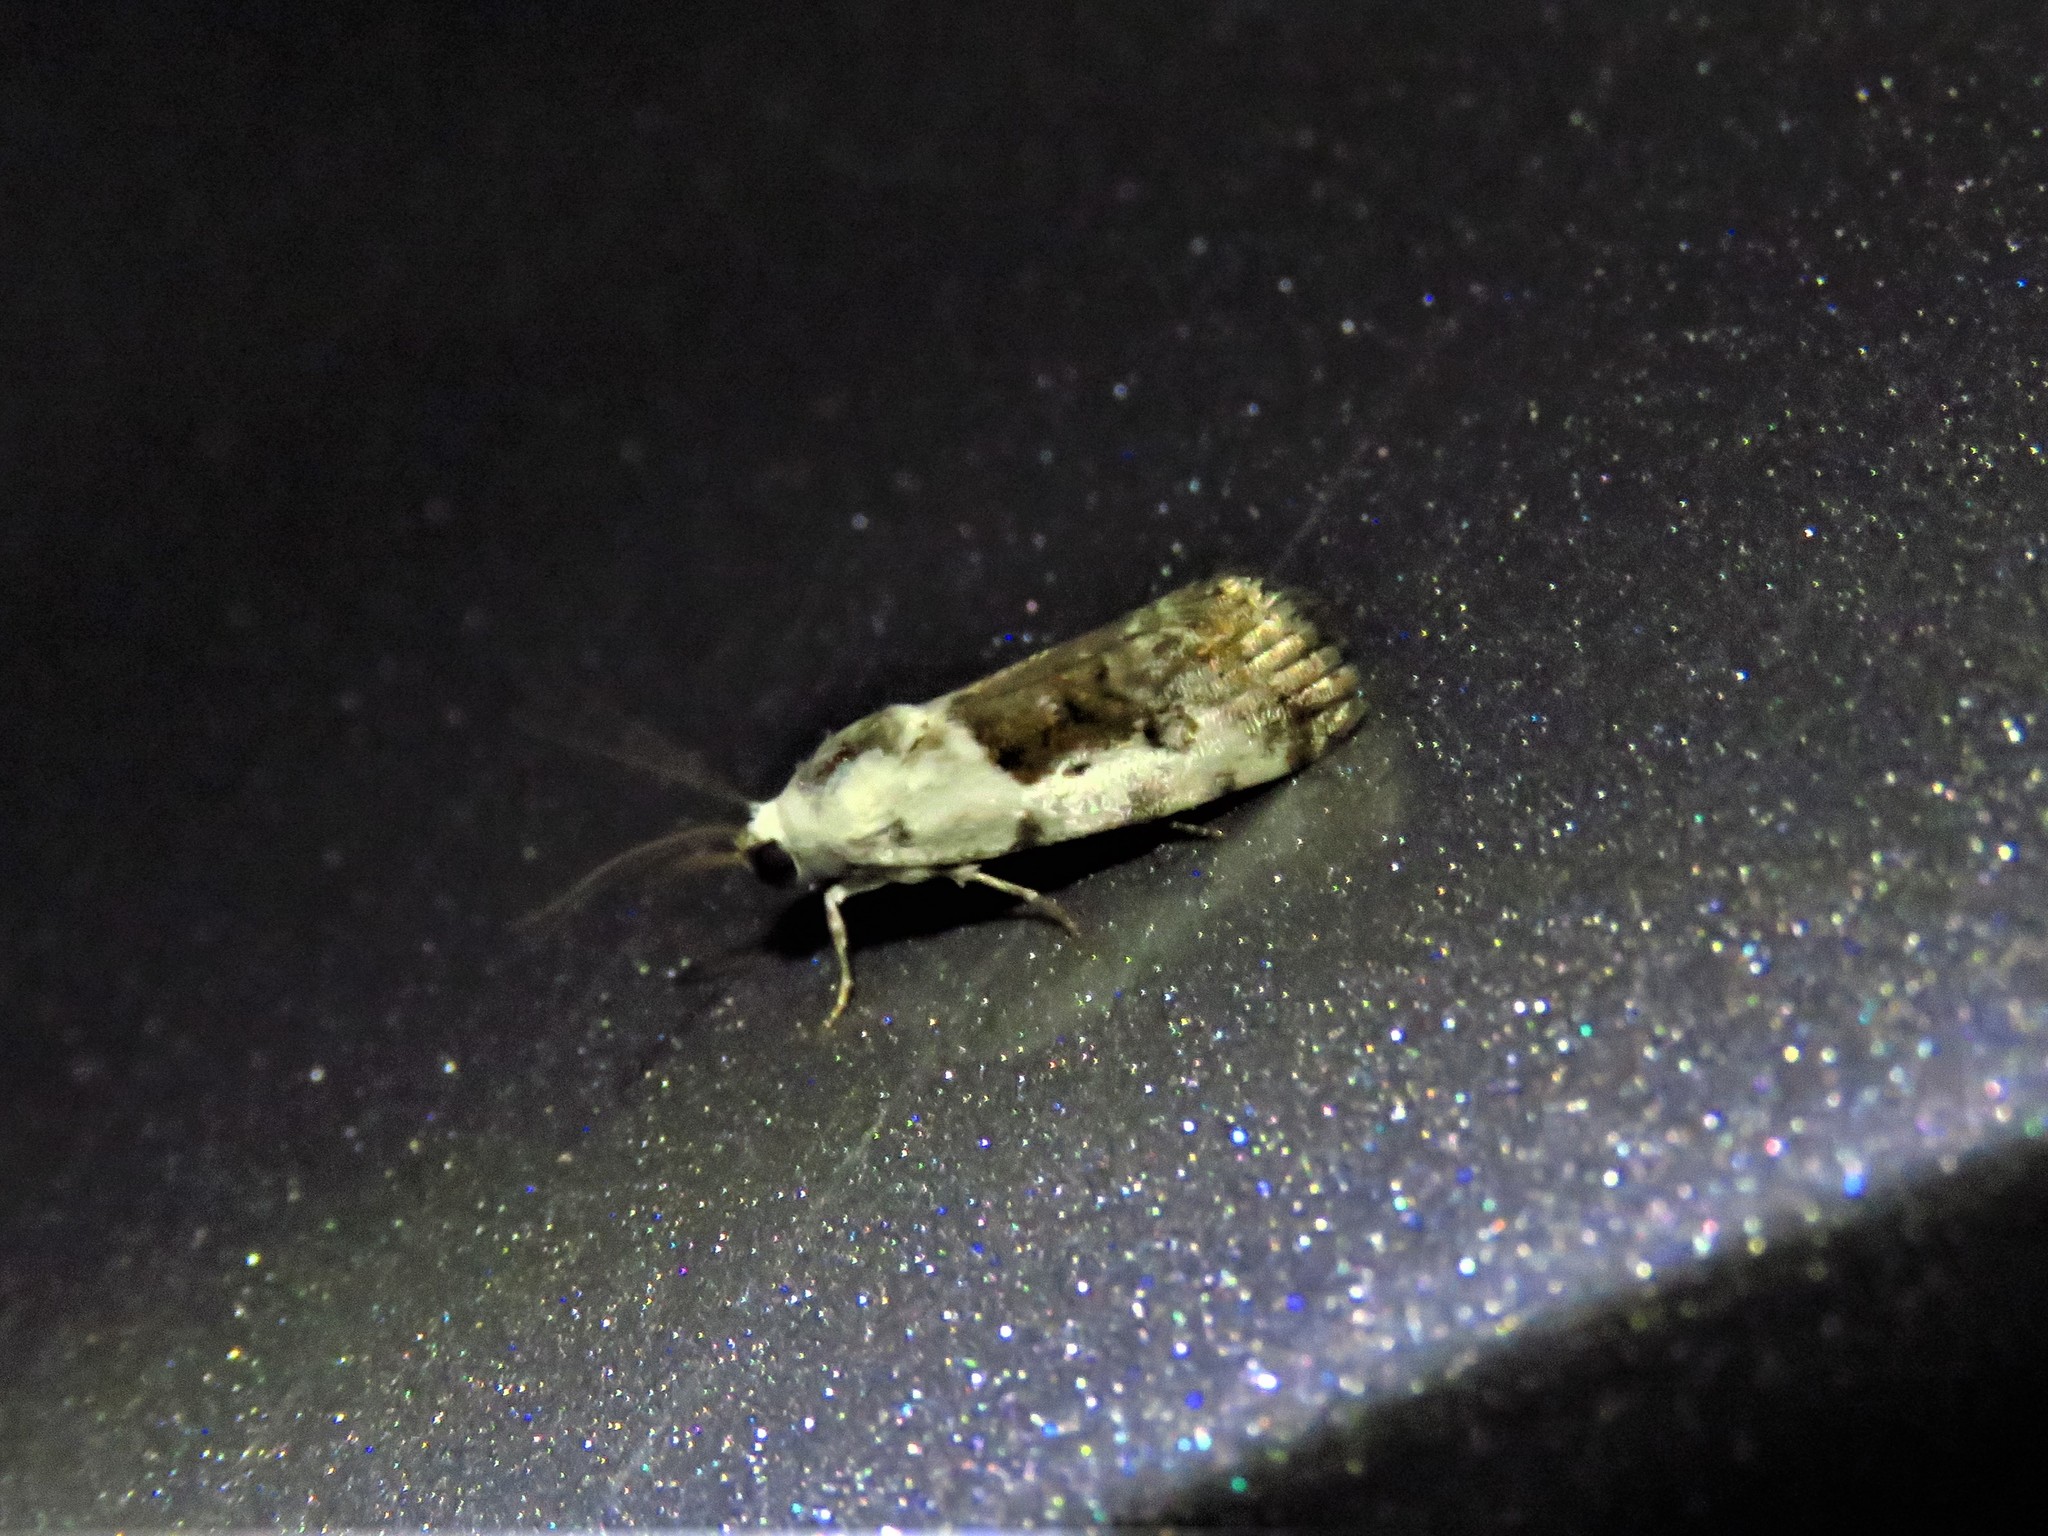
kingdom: Animalia
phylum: Arthropoda
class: Insecta
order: Lepidoptera
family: Noctuidae
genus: Acontia
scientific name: Acontia phecolisca
